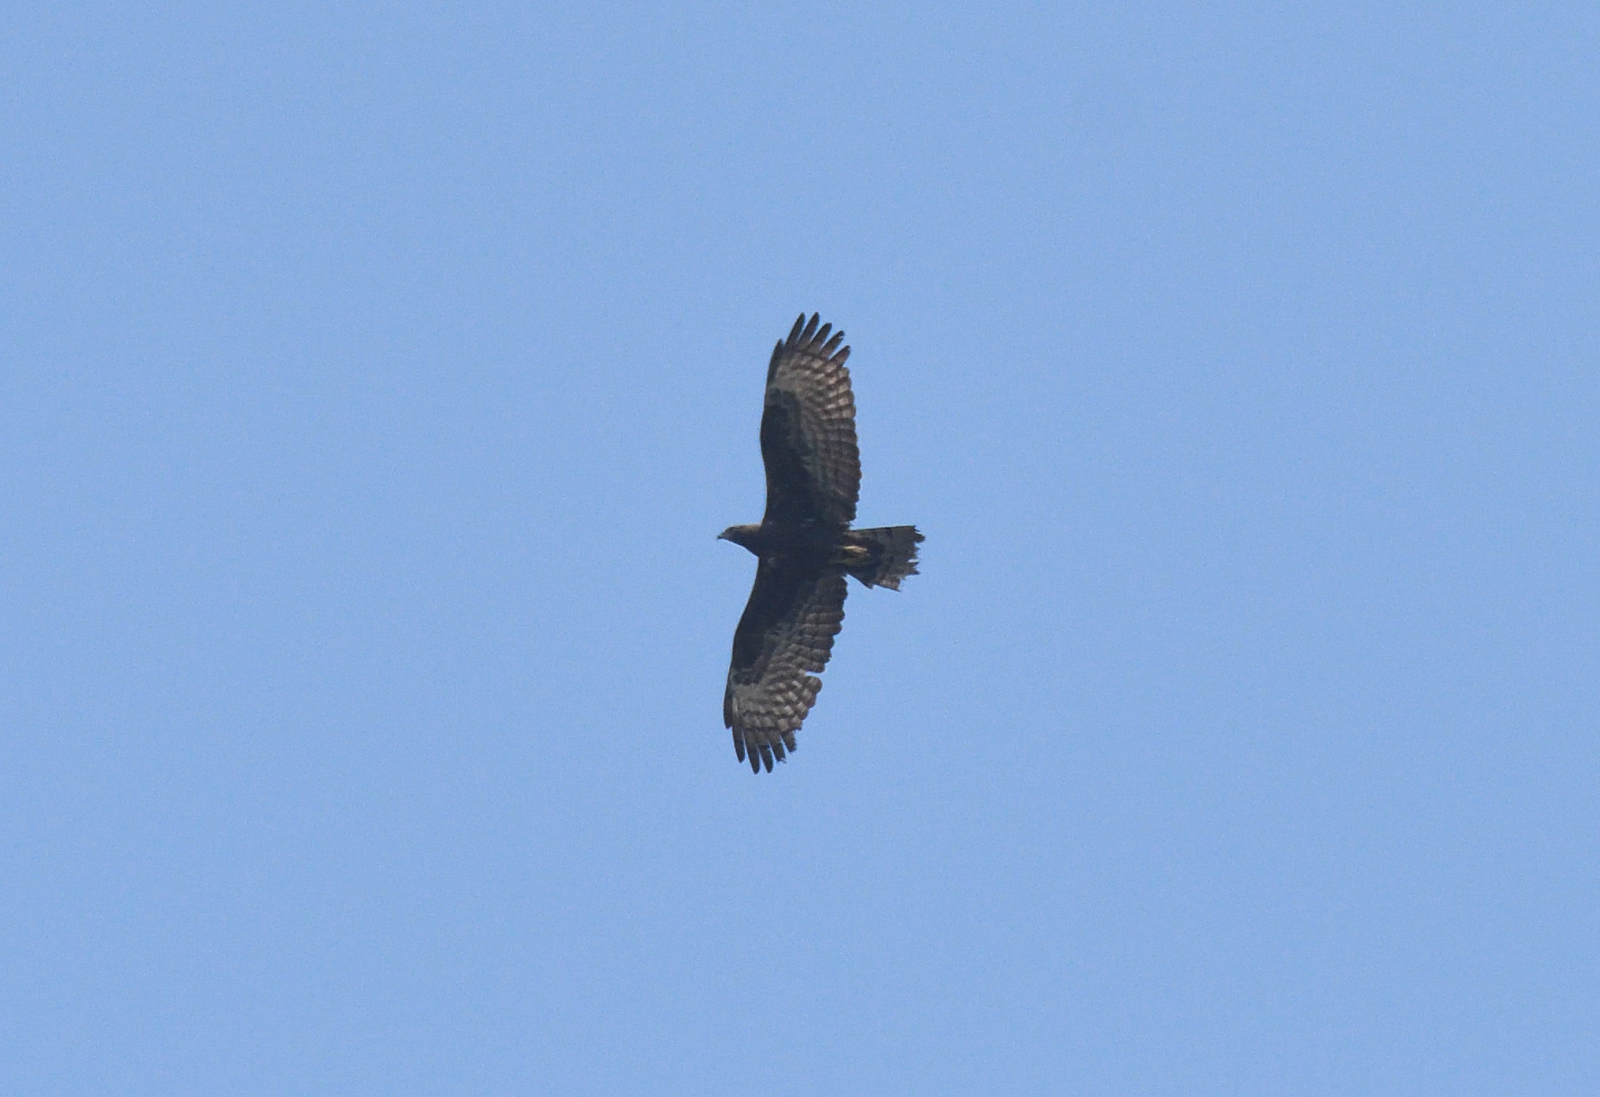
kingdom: Animalia
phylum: Chordata
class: Aves
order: Accipitriformes
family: Accipitridae
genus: Pernis
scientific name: Pernis ptilorhynchus
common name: Crested honey buzzard
